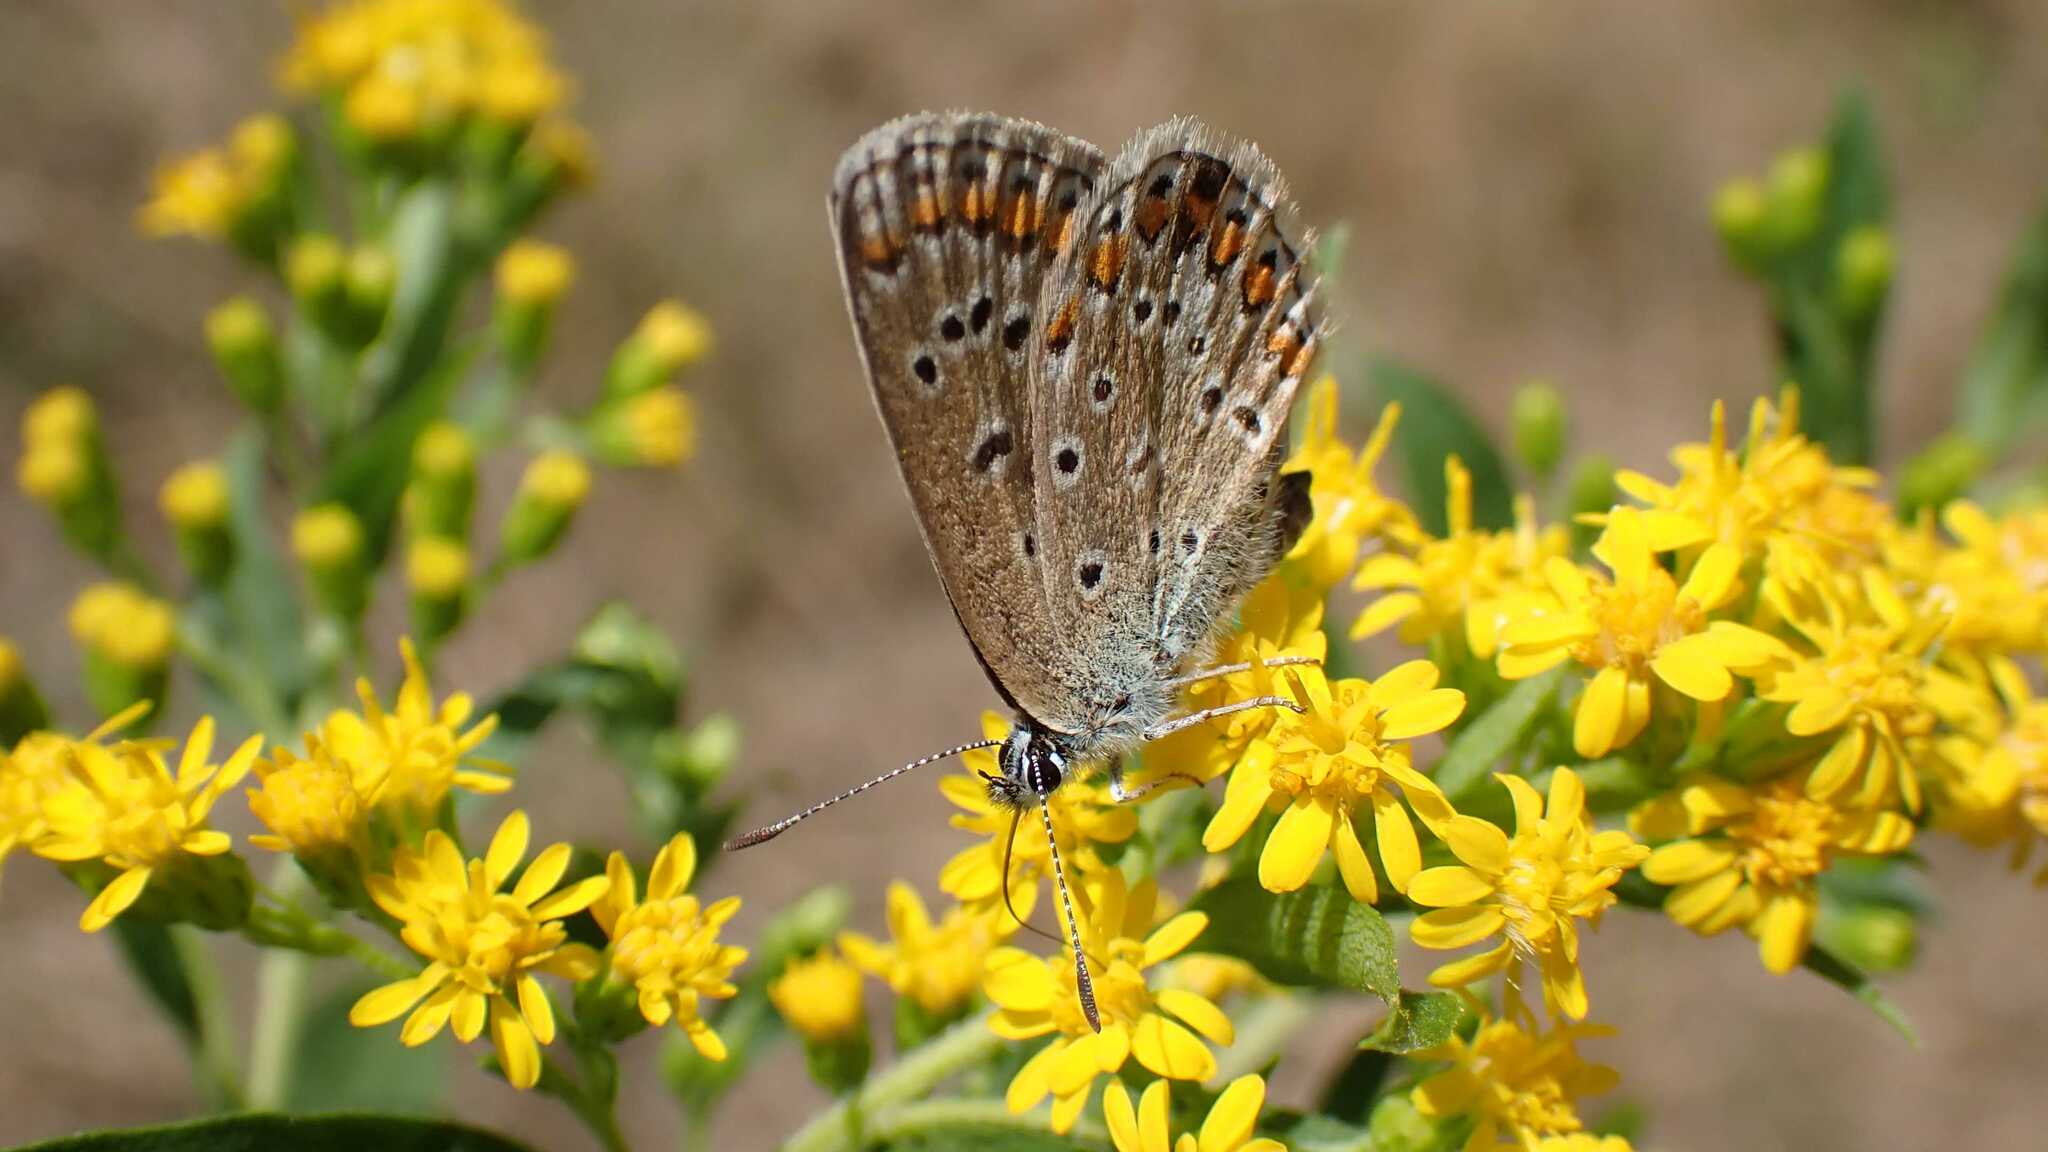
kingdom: Animalia
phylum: Arthropoda
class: Insecta
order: Lepidoptera
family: Lycaenidae
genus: Polyommatus
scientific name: Polyommatus icarus
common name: Common blue
